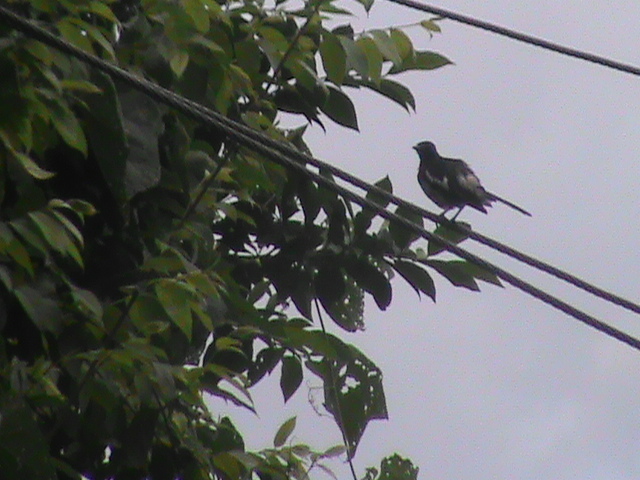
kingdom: Animalia
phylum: Chordata
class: Aves
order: Passeriformes
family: Muscicapidae
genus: Copsychus
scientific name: Copsychus saularis
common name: Oriental magpie-robin
